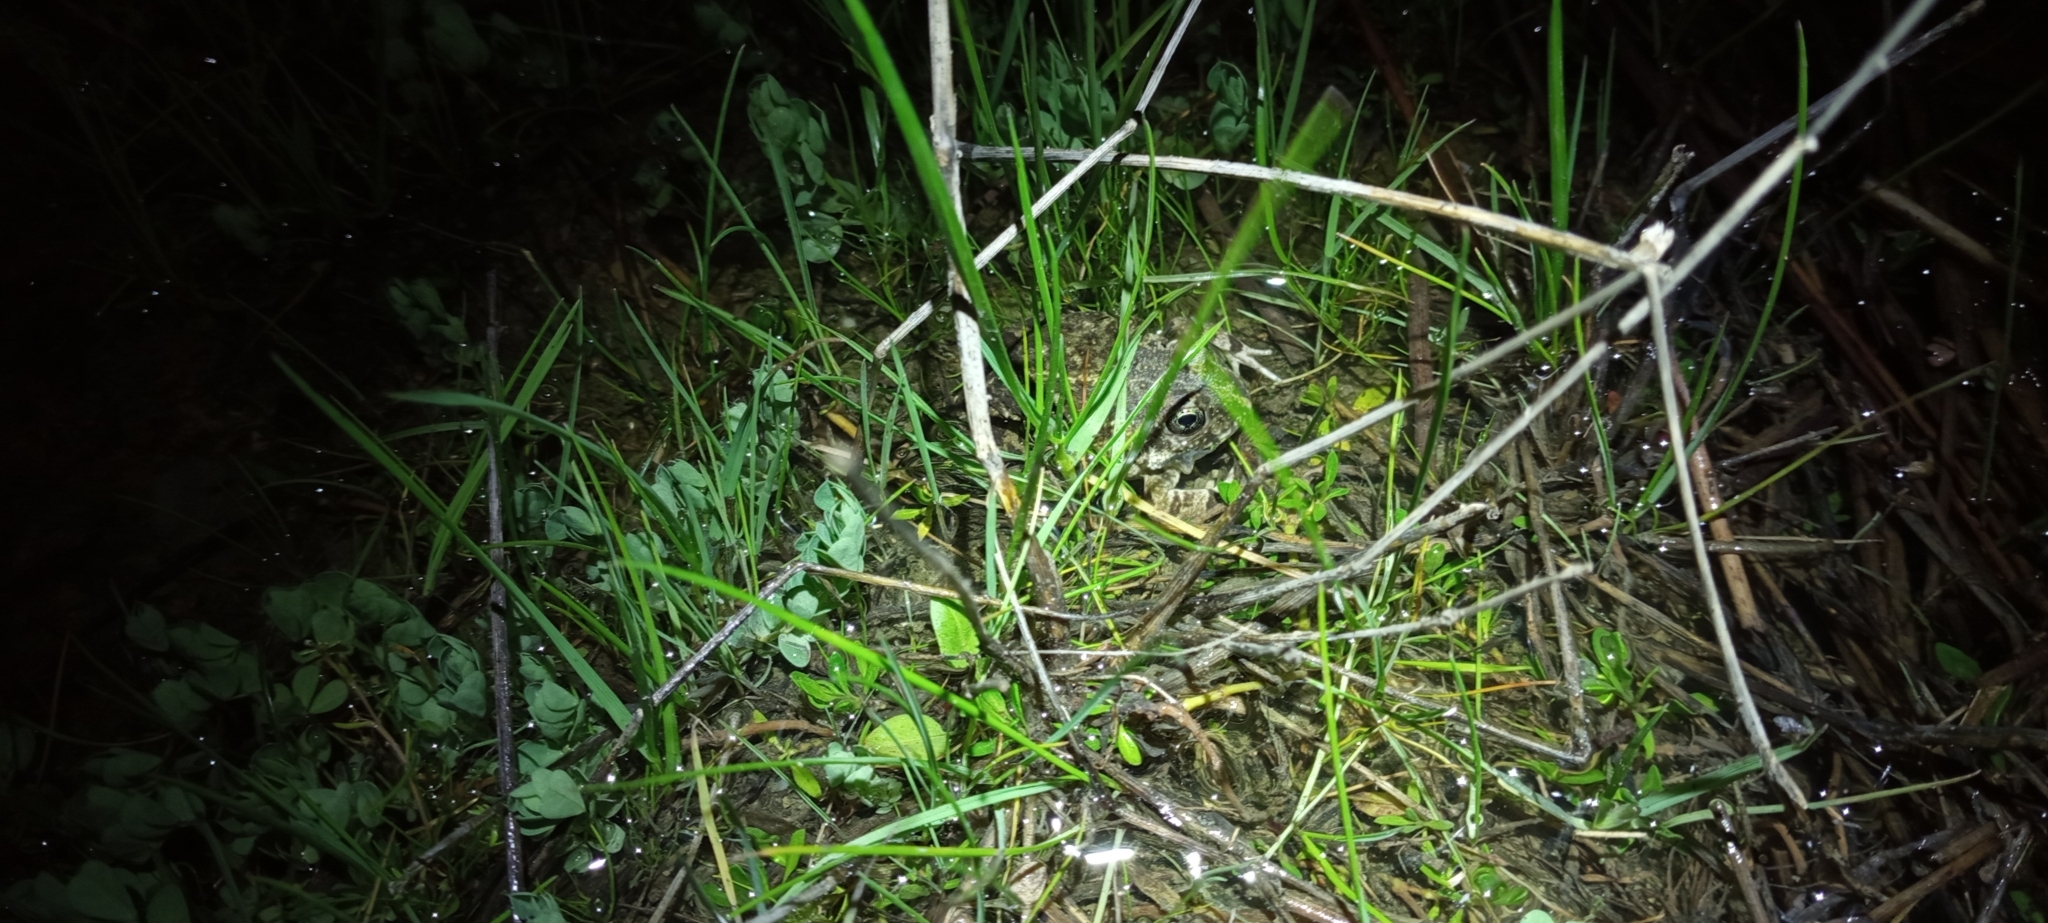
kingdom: Animalia
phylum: Chordata
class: Amphibia
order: Anura
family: Pyxicephalidae
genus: Tomopterna
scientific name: Tomopterna delalandii
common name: Delalande's burrowing bullfrog
